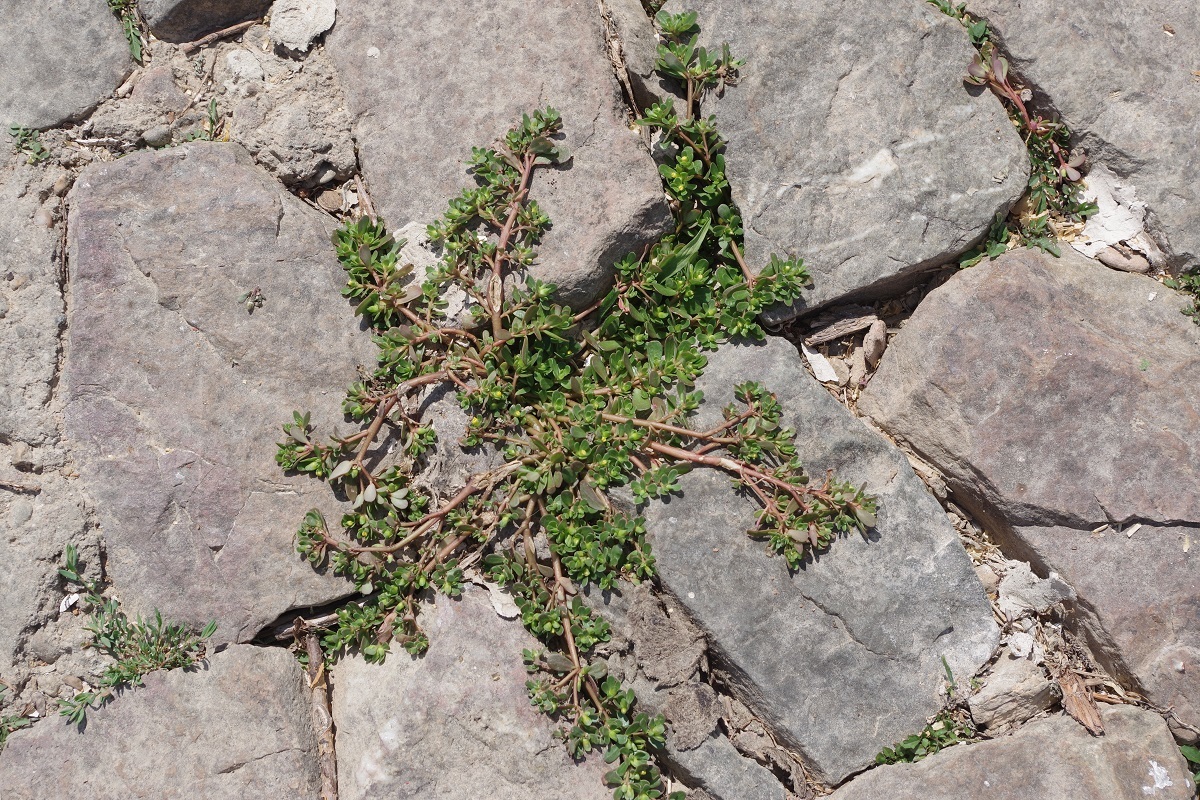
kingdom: Plantae
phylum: Tracheophyta
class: Magnoliopsida
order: Caryophyllales
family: Portulacaceae
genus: Portulaca
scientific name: Portulaca oleracea
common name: Common purslane
